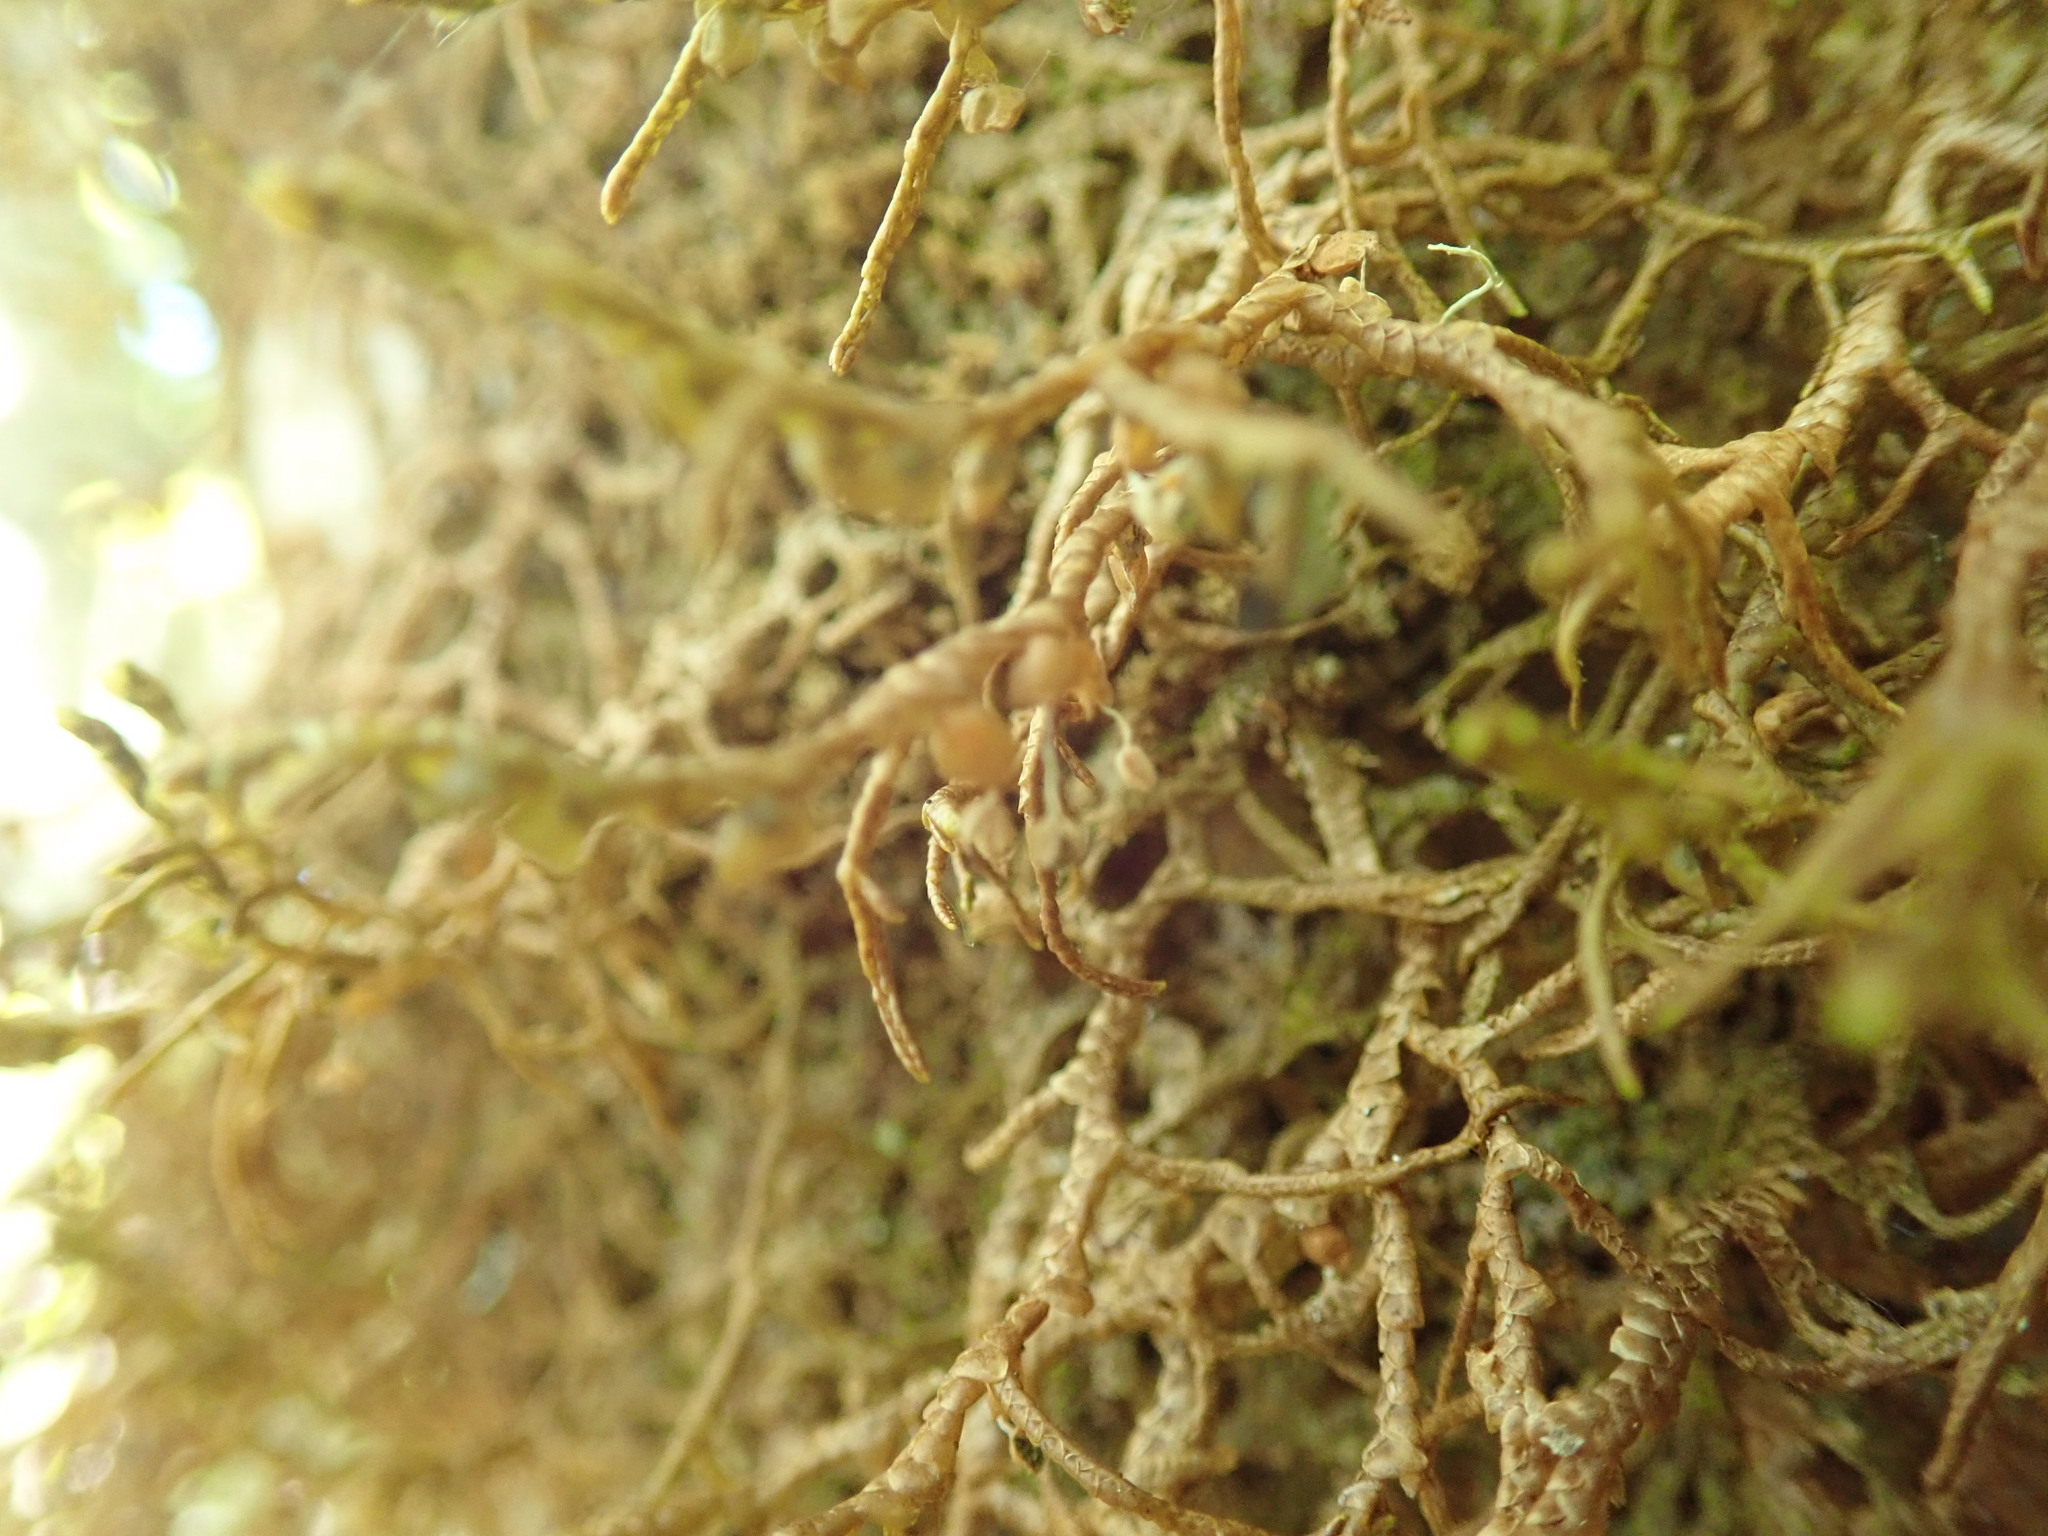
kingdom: Plantae
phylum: Marchantiophyta
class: Jungermanniopsida
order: Porellales
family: Porellaceae
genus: Porella
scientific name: Porella navicularis
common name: Tree ruffle liverwort
